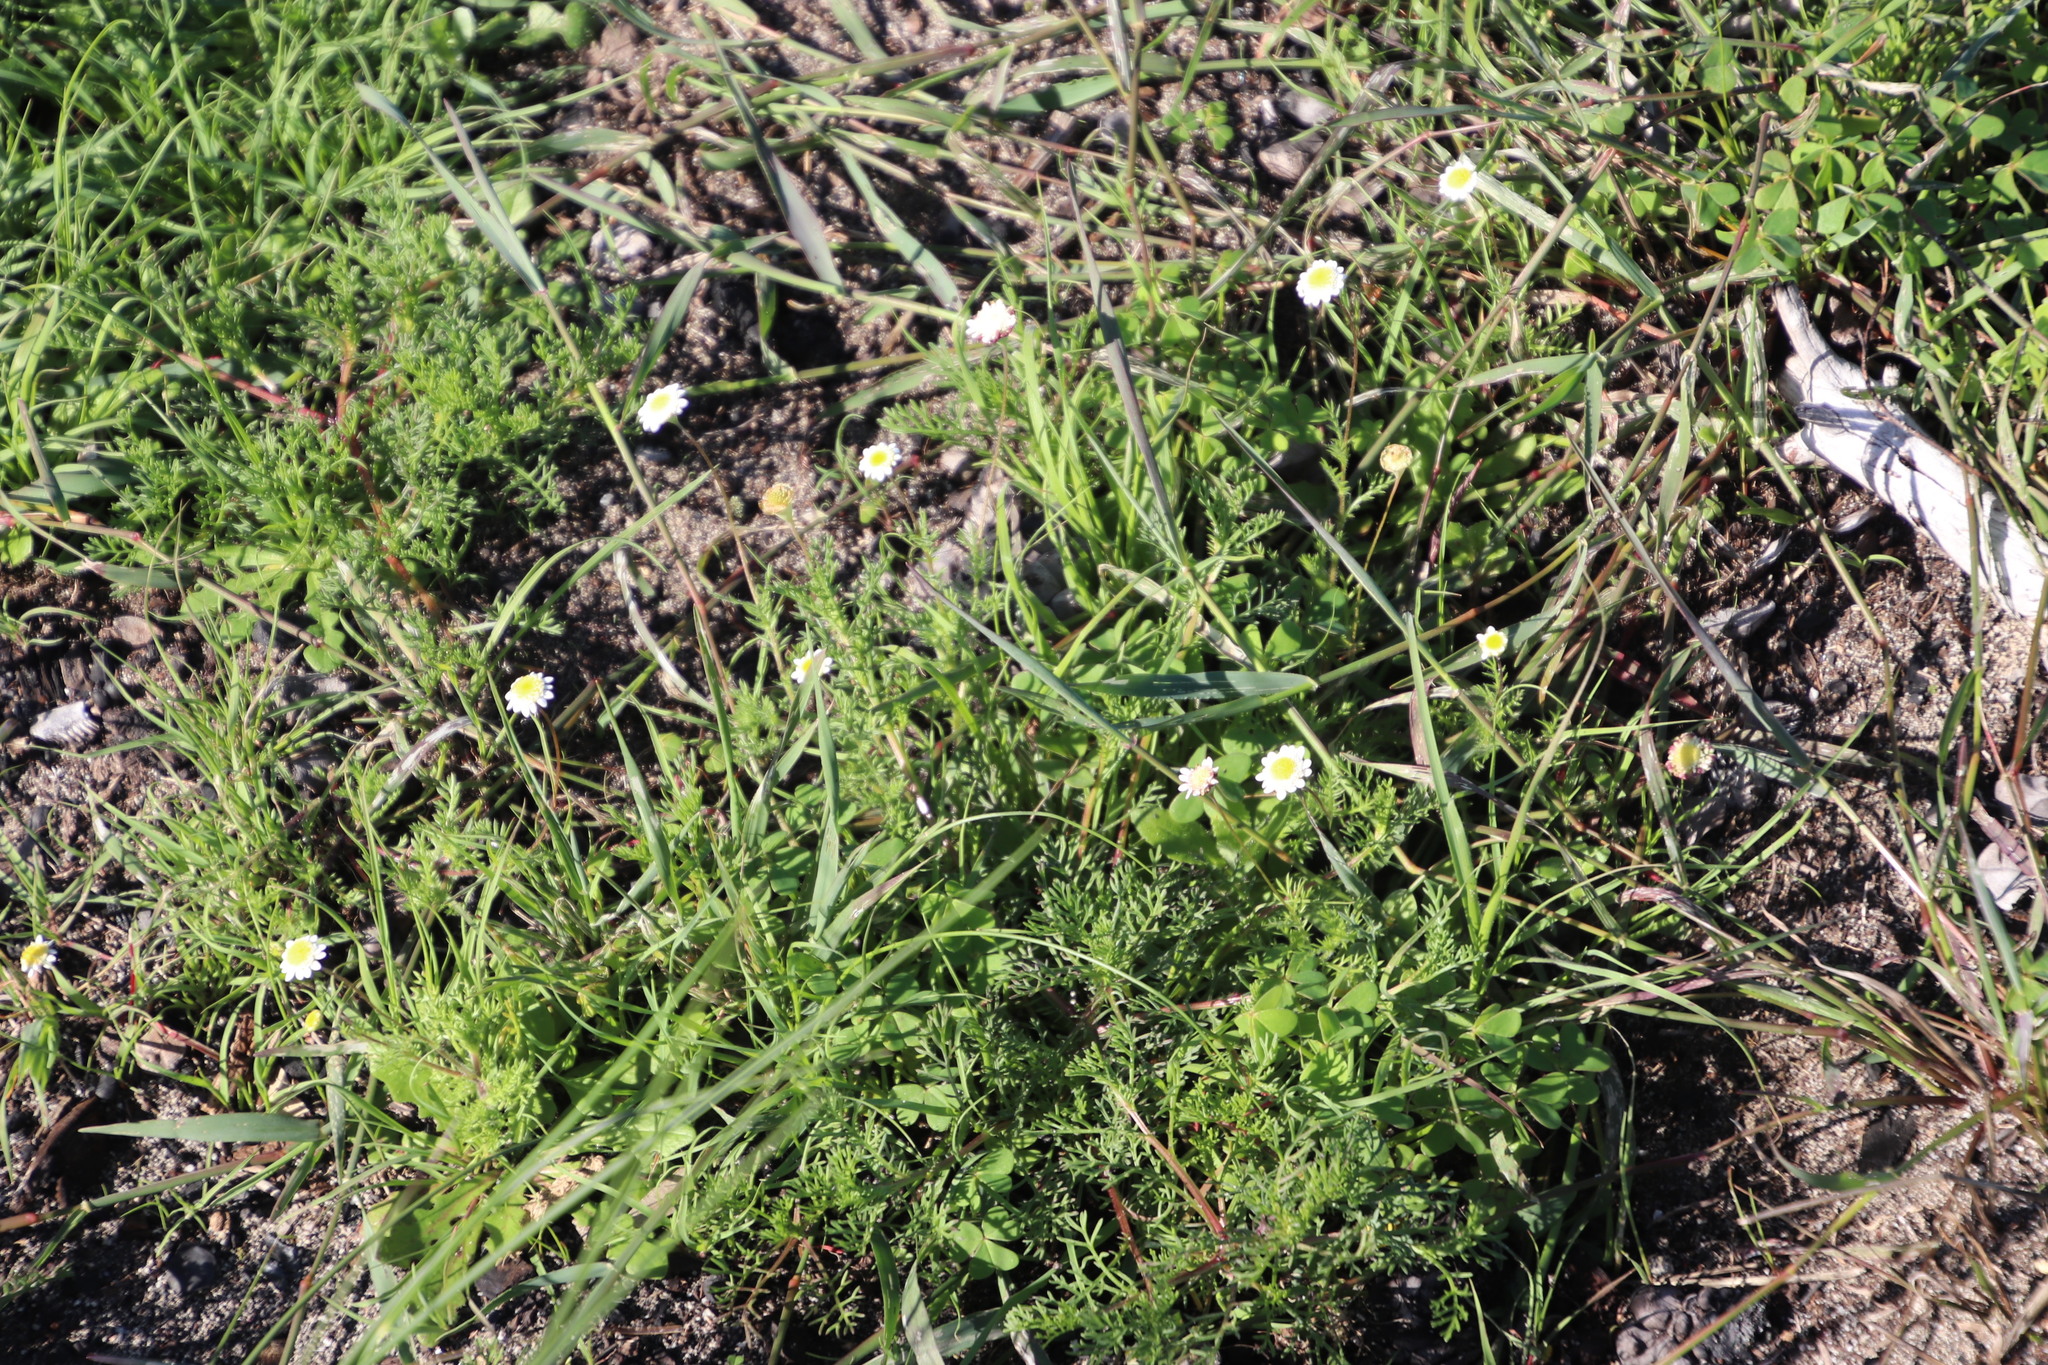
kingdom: Plantae
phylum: Tracheophyta
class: Magnoliopsida
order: Asterales
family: Asteraceae
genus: Cotula
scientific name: Cotula turbinata
